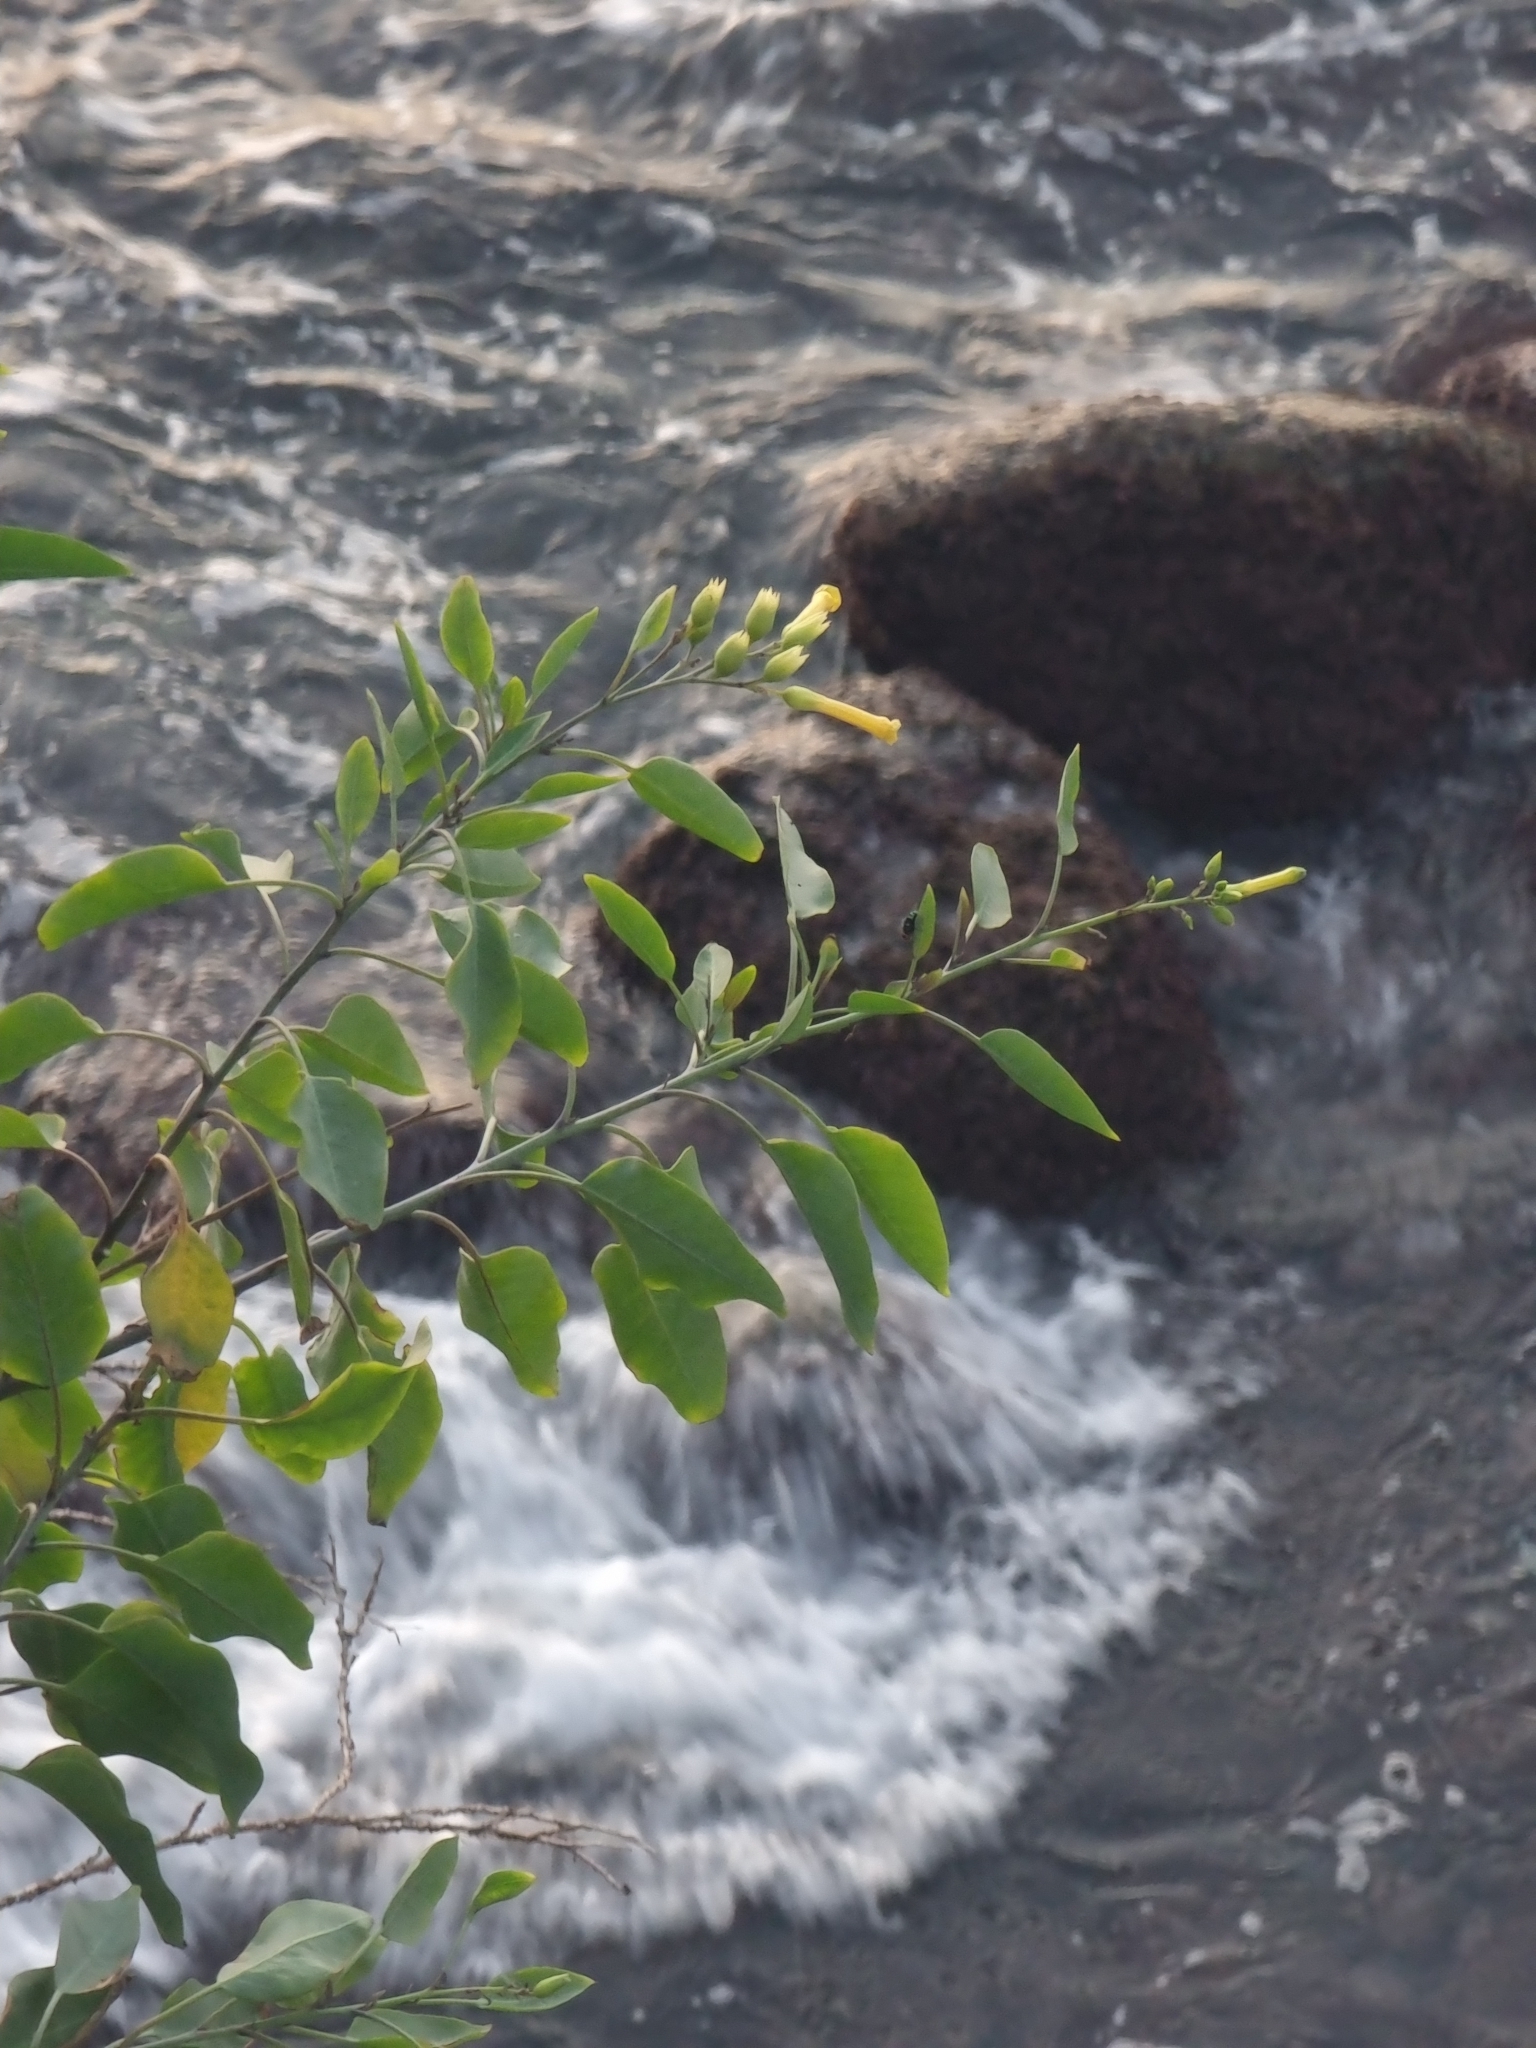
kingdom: Plantae
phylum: Tracheophyta
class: Magnoliopsida
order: Solanales
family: Solanaceae
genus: Nicotiana
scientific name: Nicotiana glauca
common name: Tree tobacco
